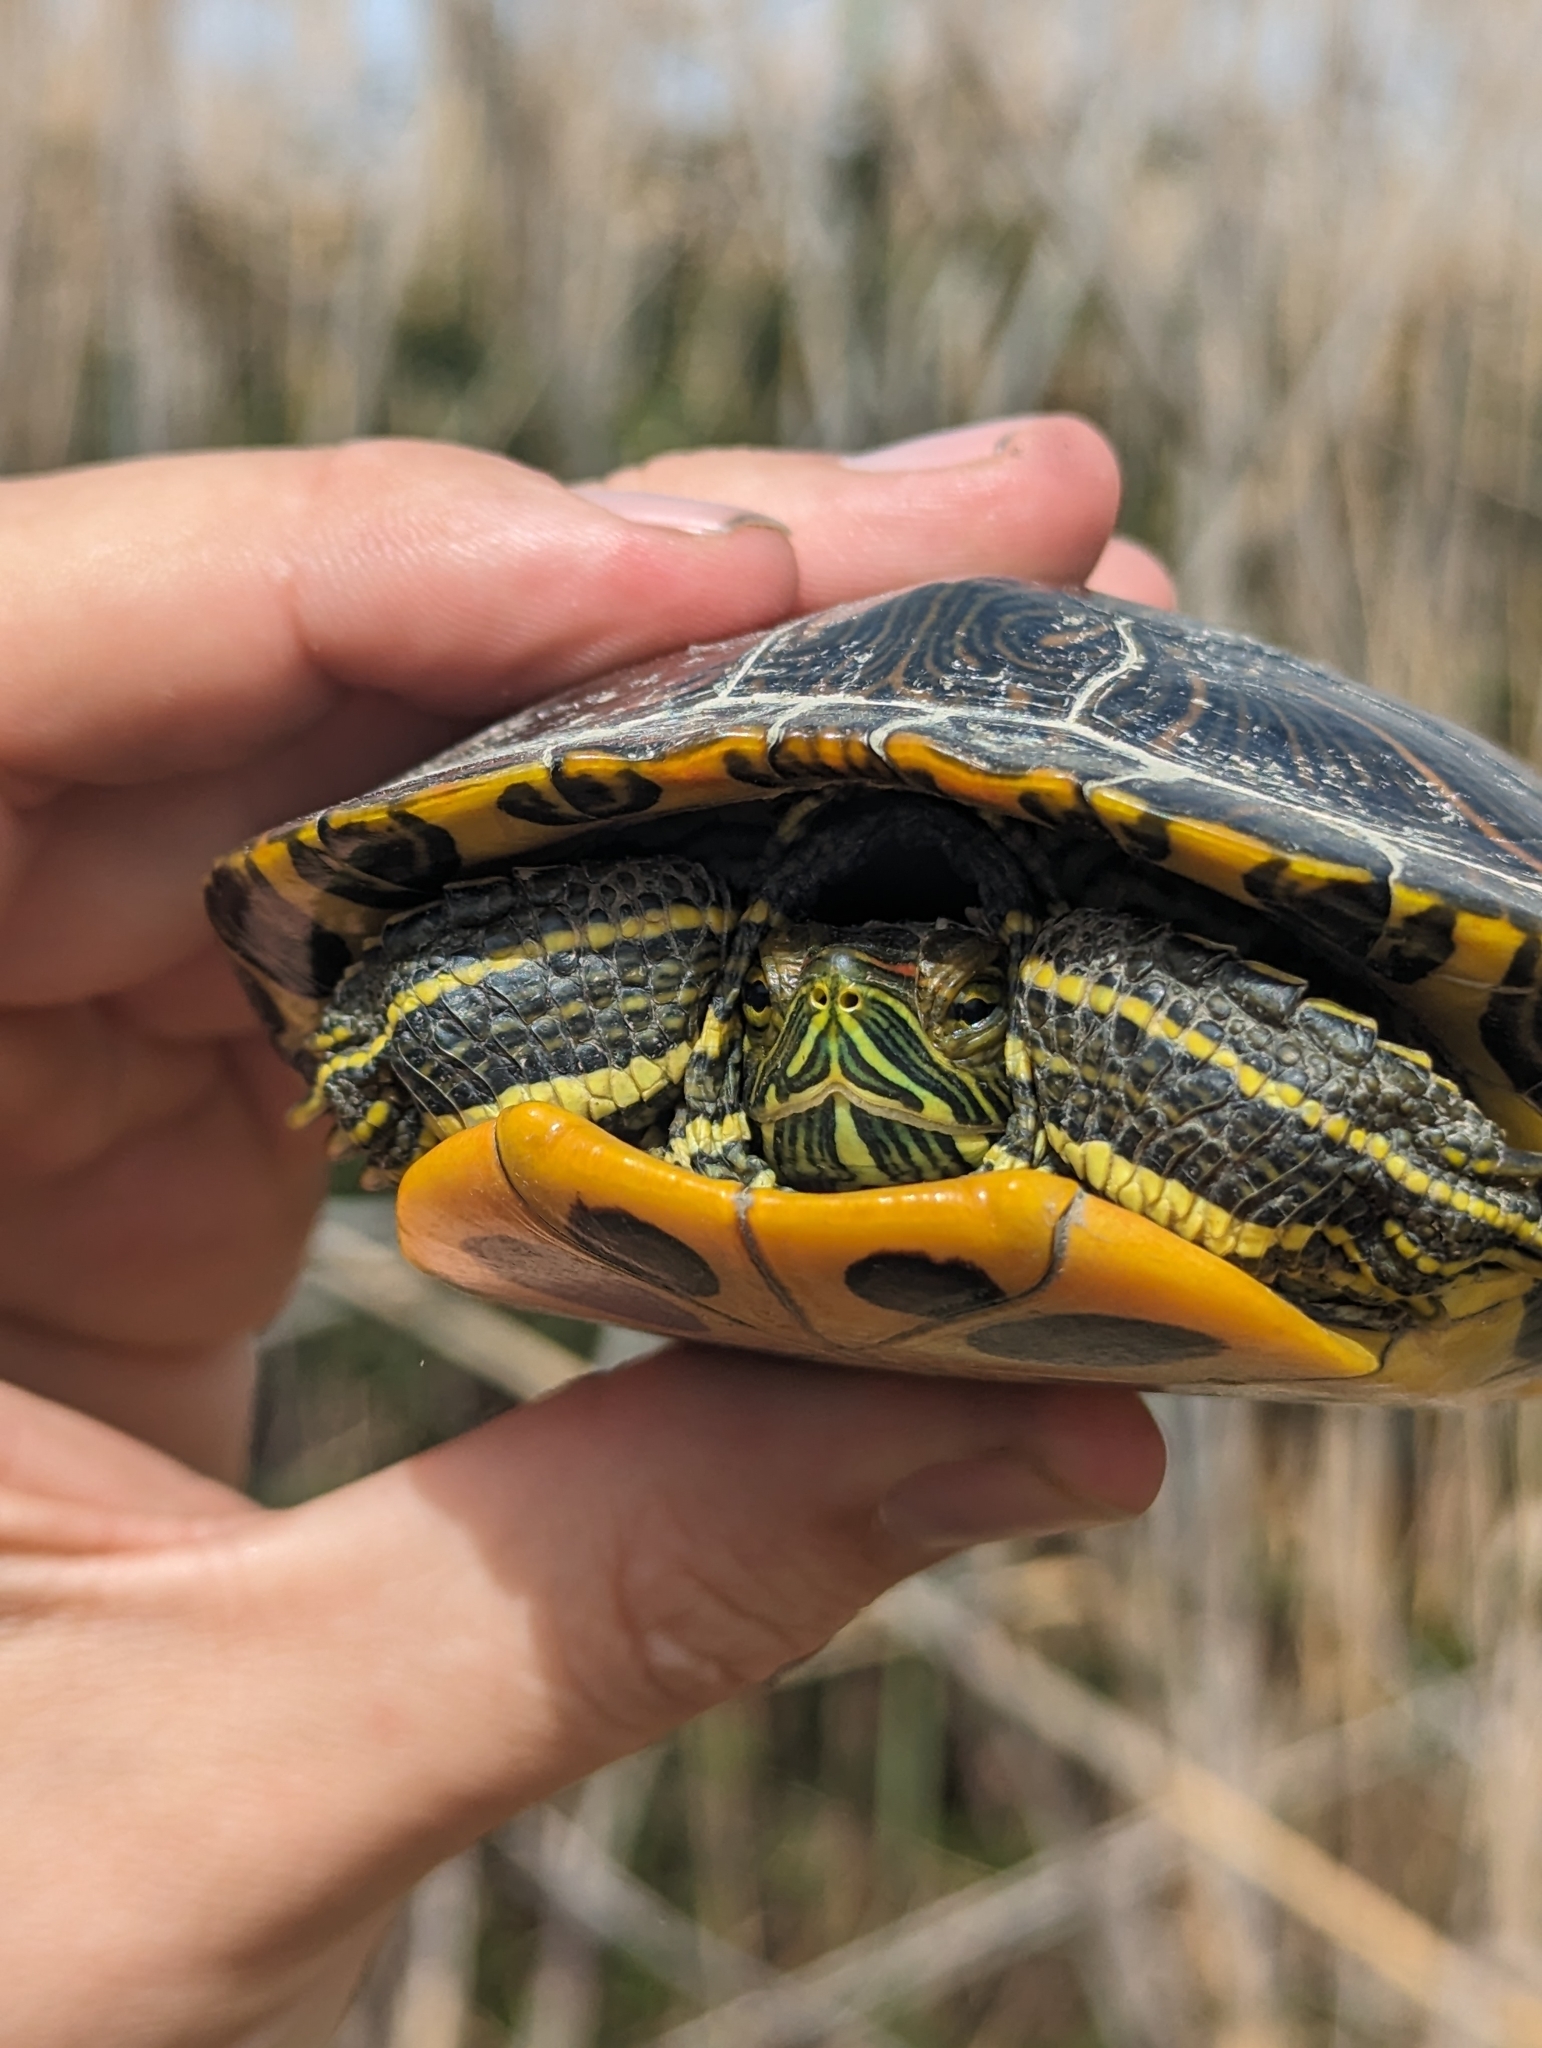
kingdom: Animalia
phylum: Chordata
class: Testudines
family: Emydidae
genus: Trachemys
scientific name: Trachemys scripta
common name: Slider
